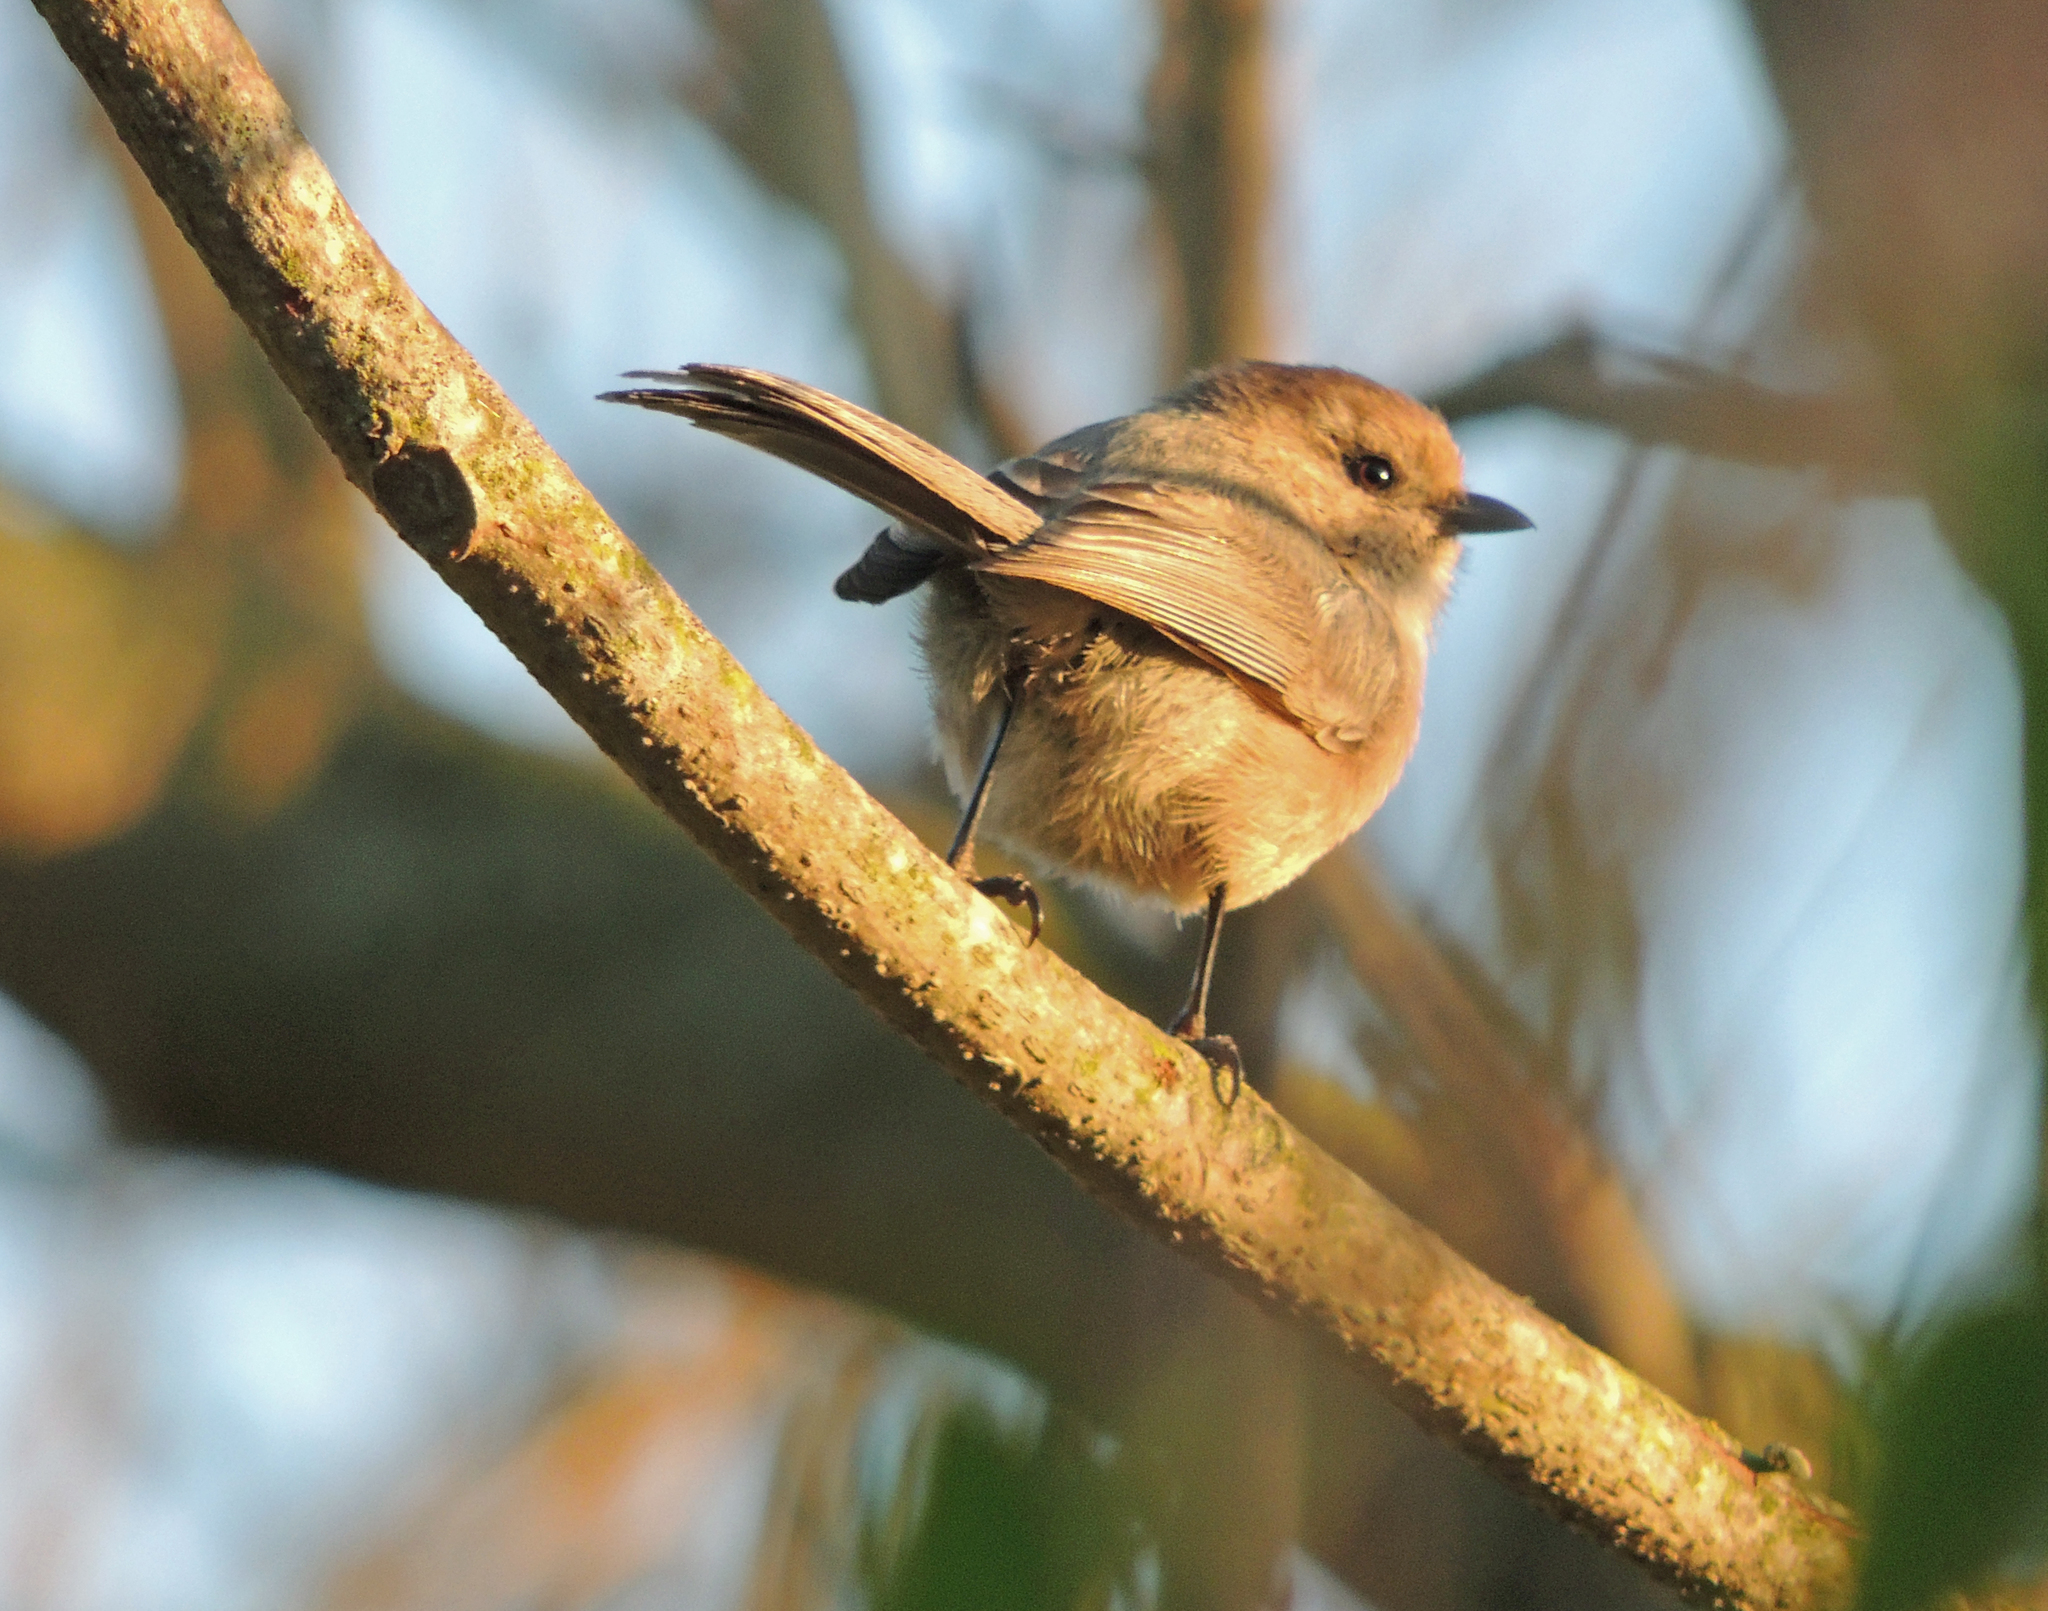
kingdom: Animalia
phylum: Chordata
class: Aves
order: Passeriformes
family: Aegithalidae
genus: Psaltriparus
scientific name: Psaltriparus minimus
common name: American bushtit
